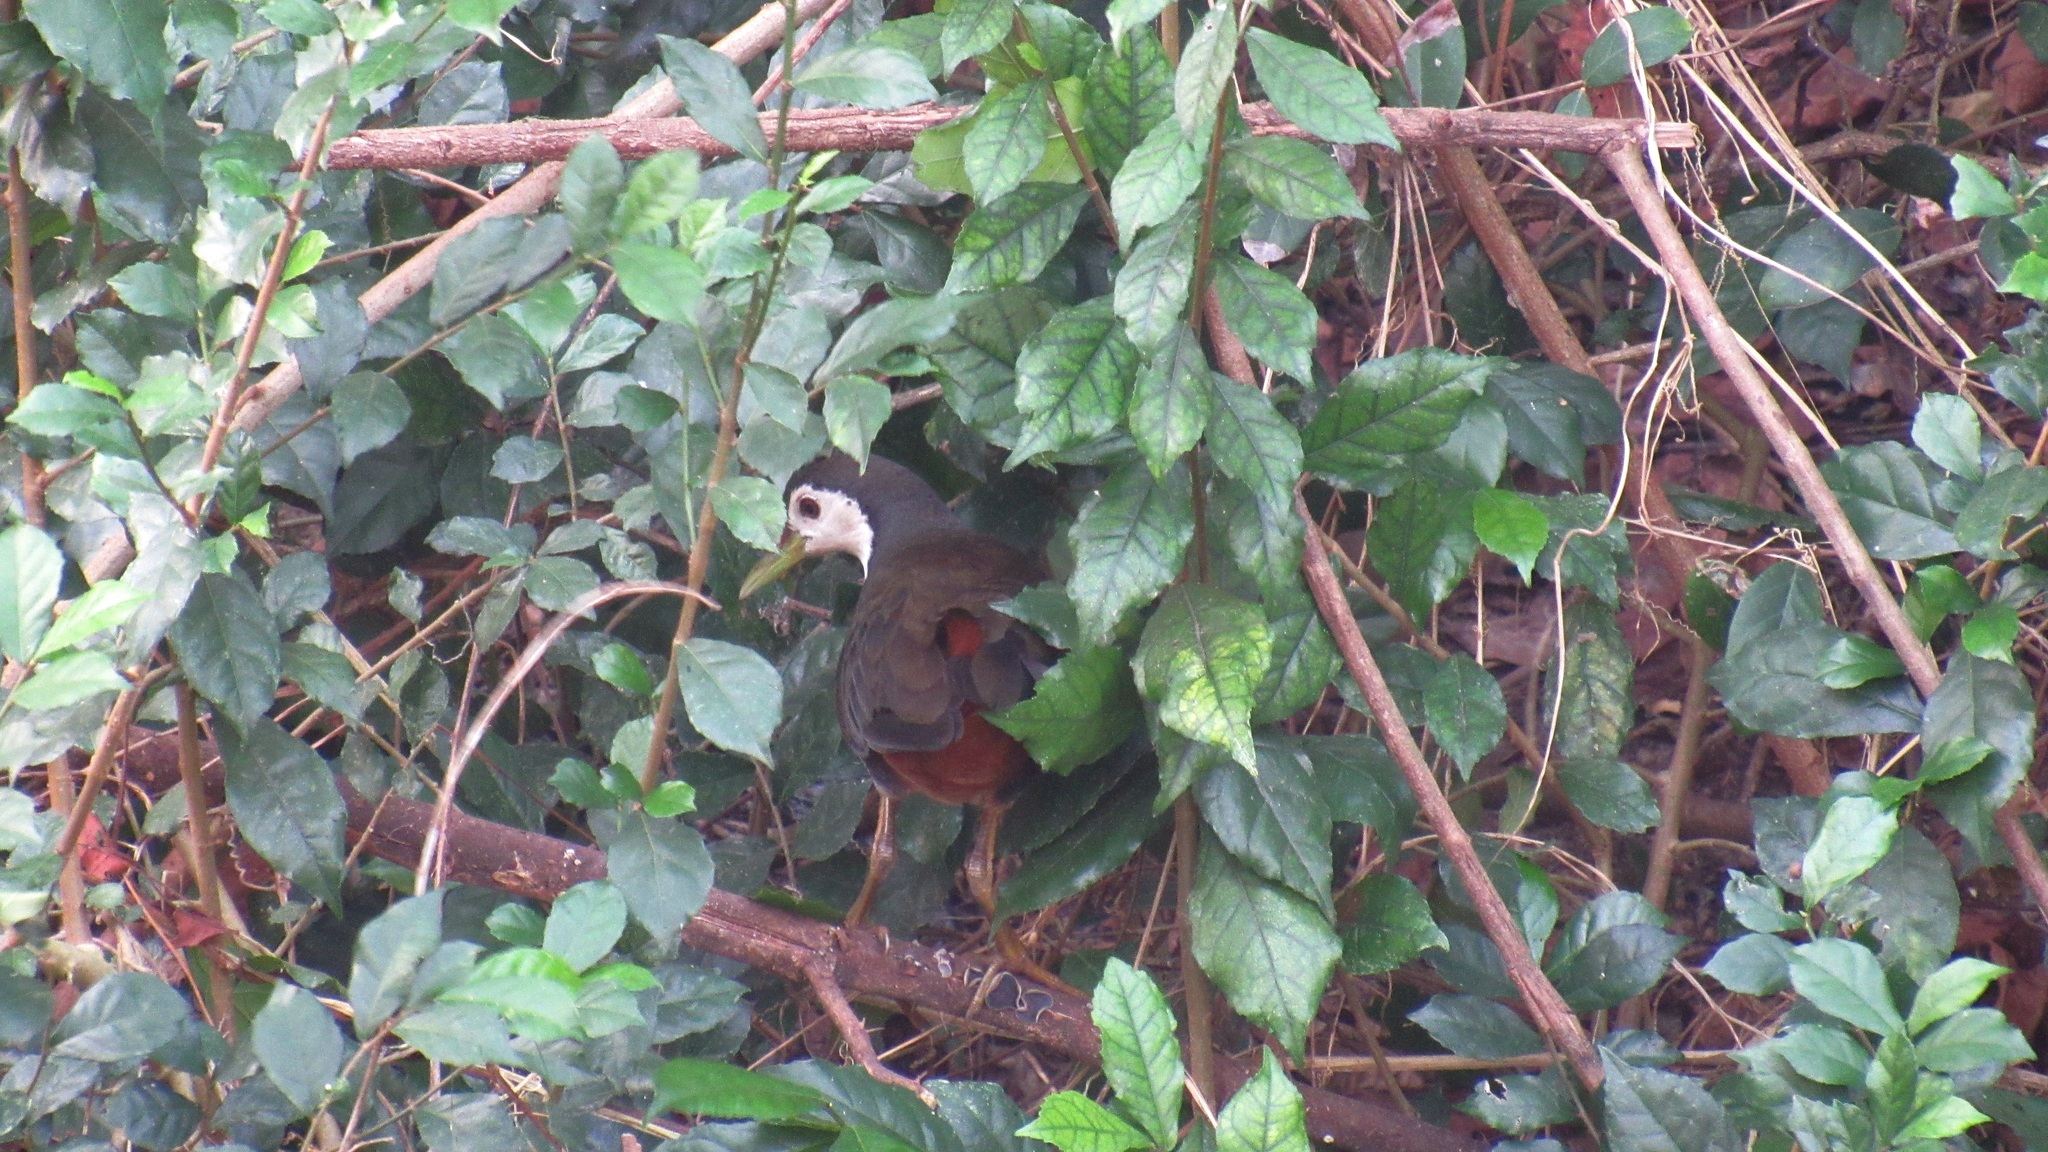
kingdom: Animalia
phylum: Chordata
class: Aves
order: Gruiformes
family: Rallidae
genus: Amaurornis
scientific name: Amaurornis phoenicurus
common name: White-breasted waterhen
